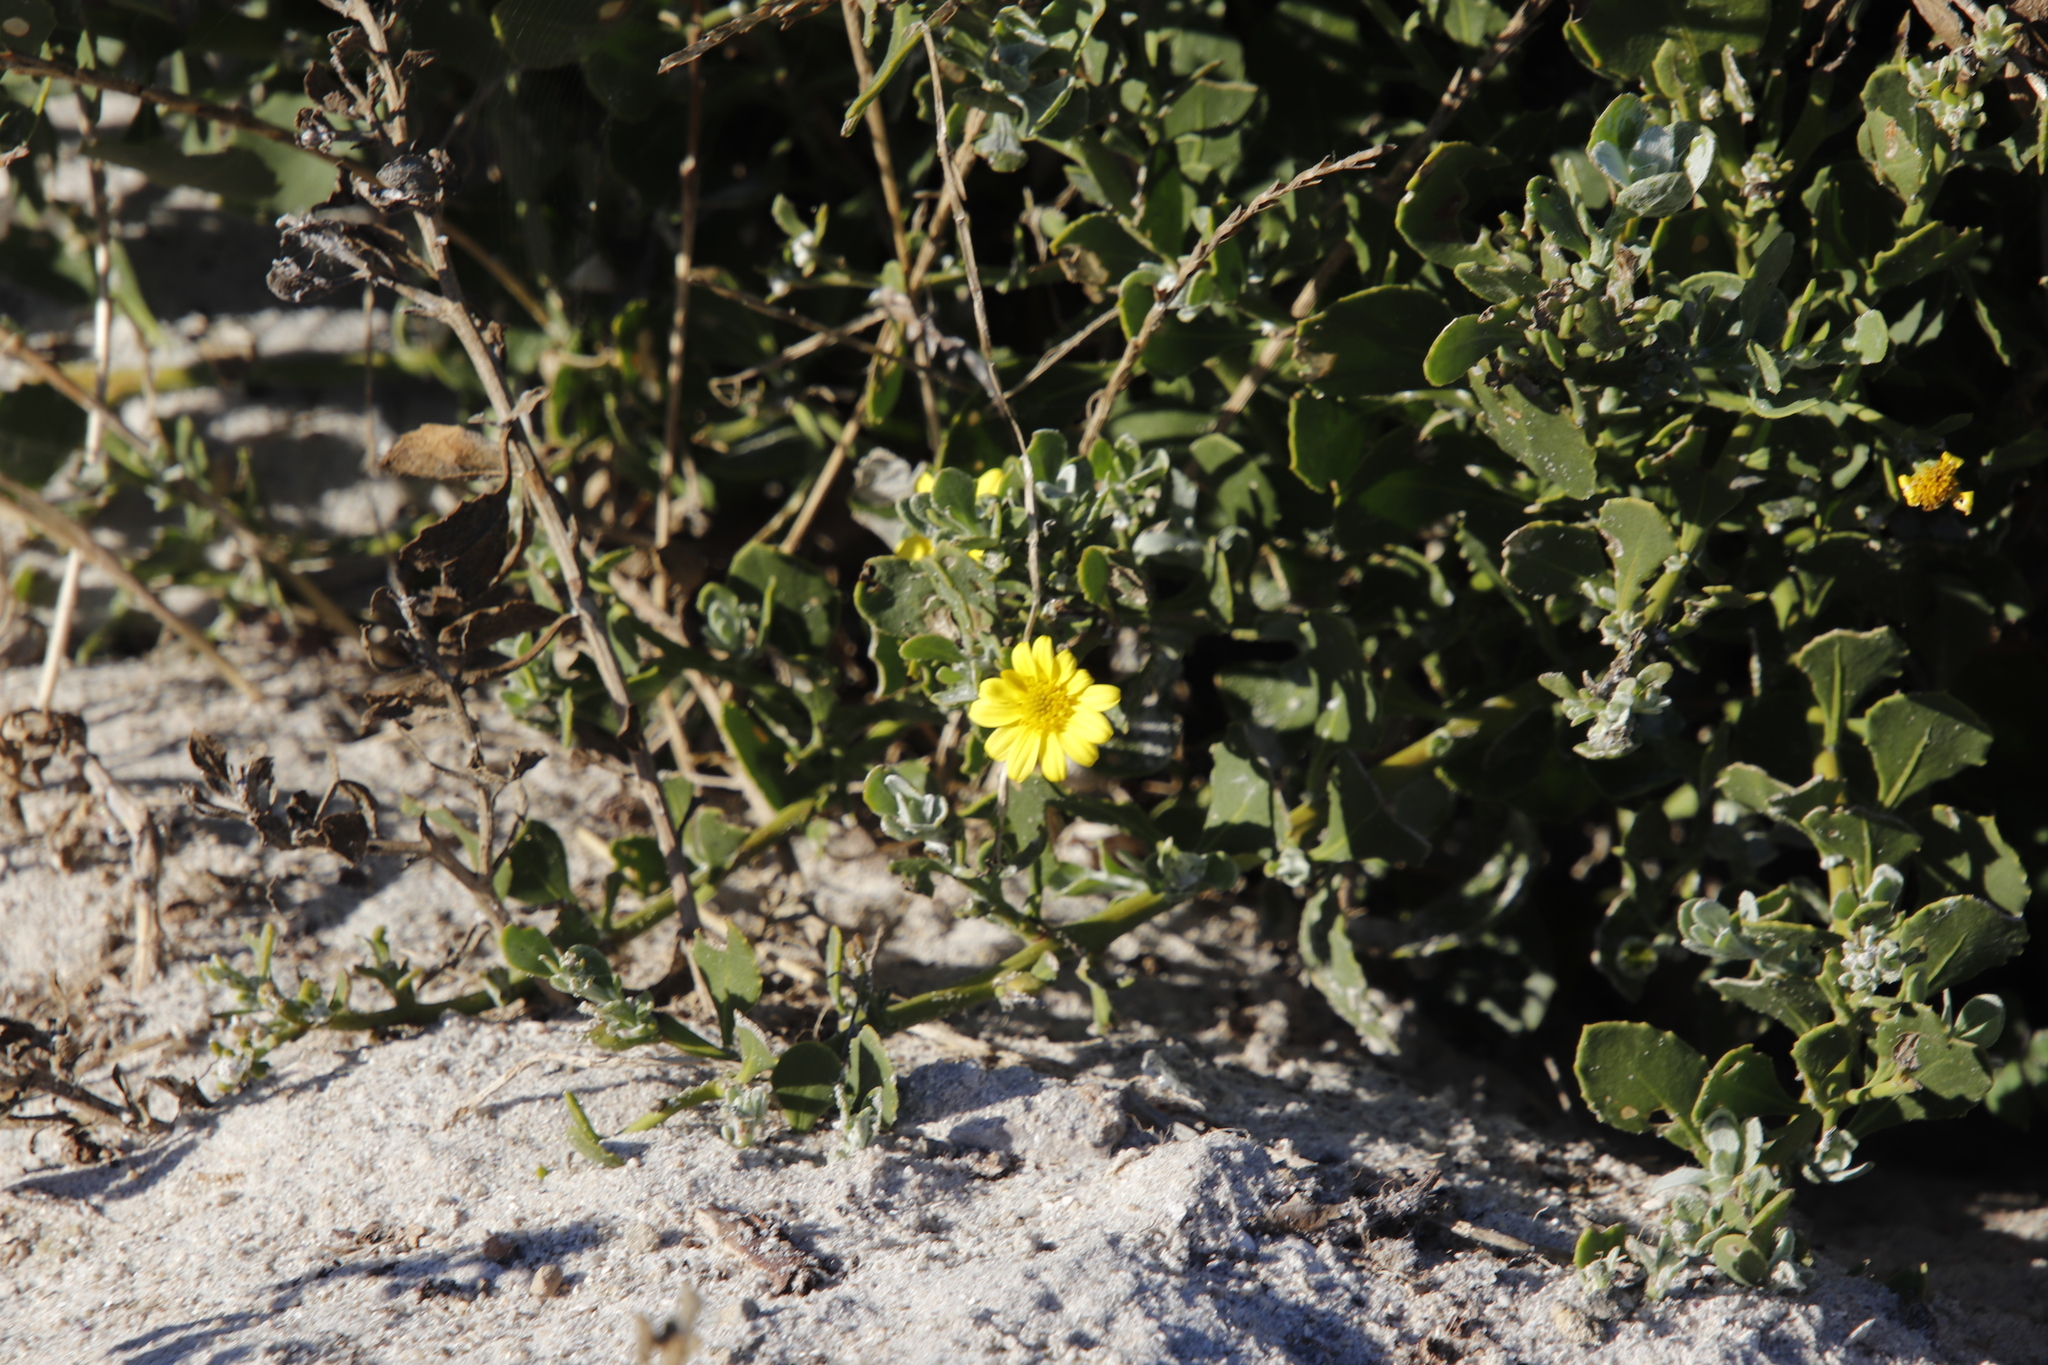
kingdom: Plantae
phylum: Tracheophyta
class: Magnoliopsida
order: Asterales
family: Asteraceae
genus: Osteospermum
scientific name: Osteospermum incanum
